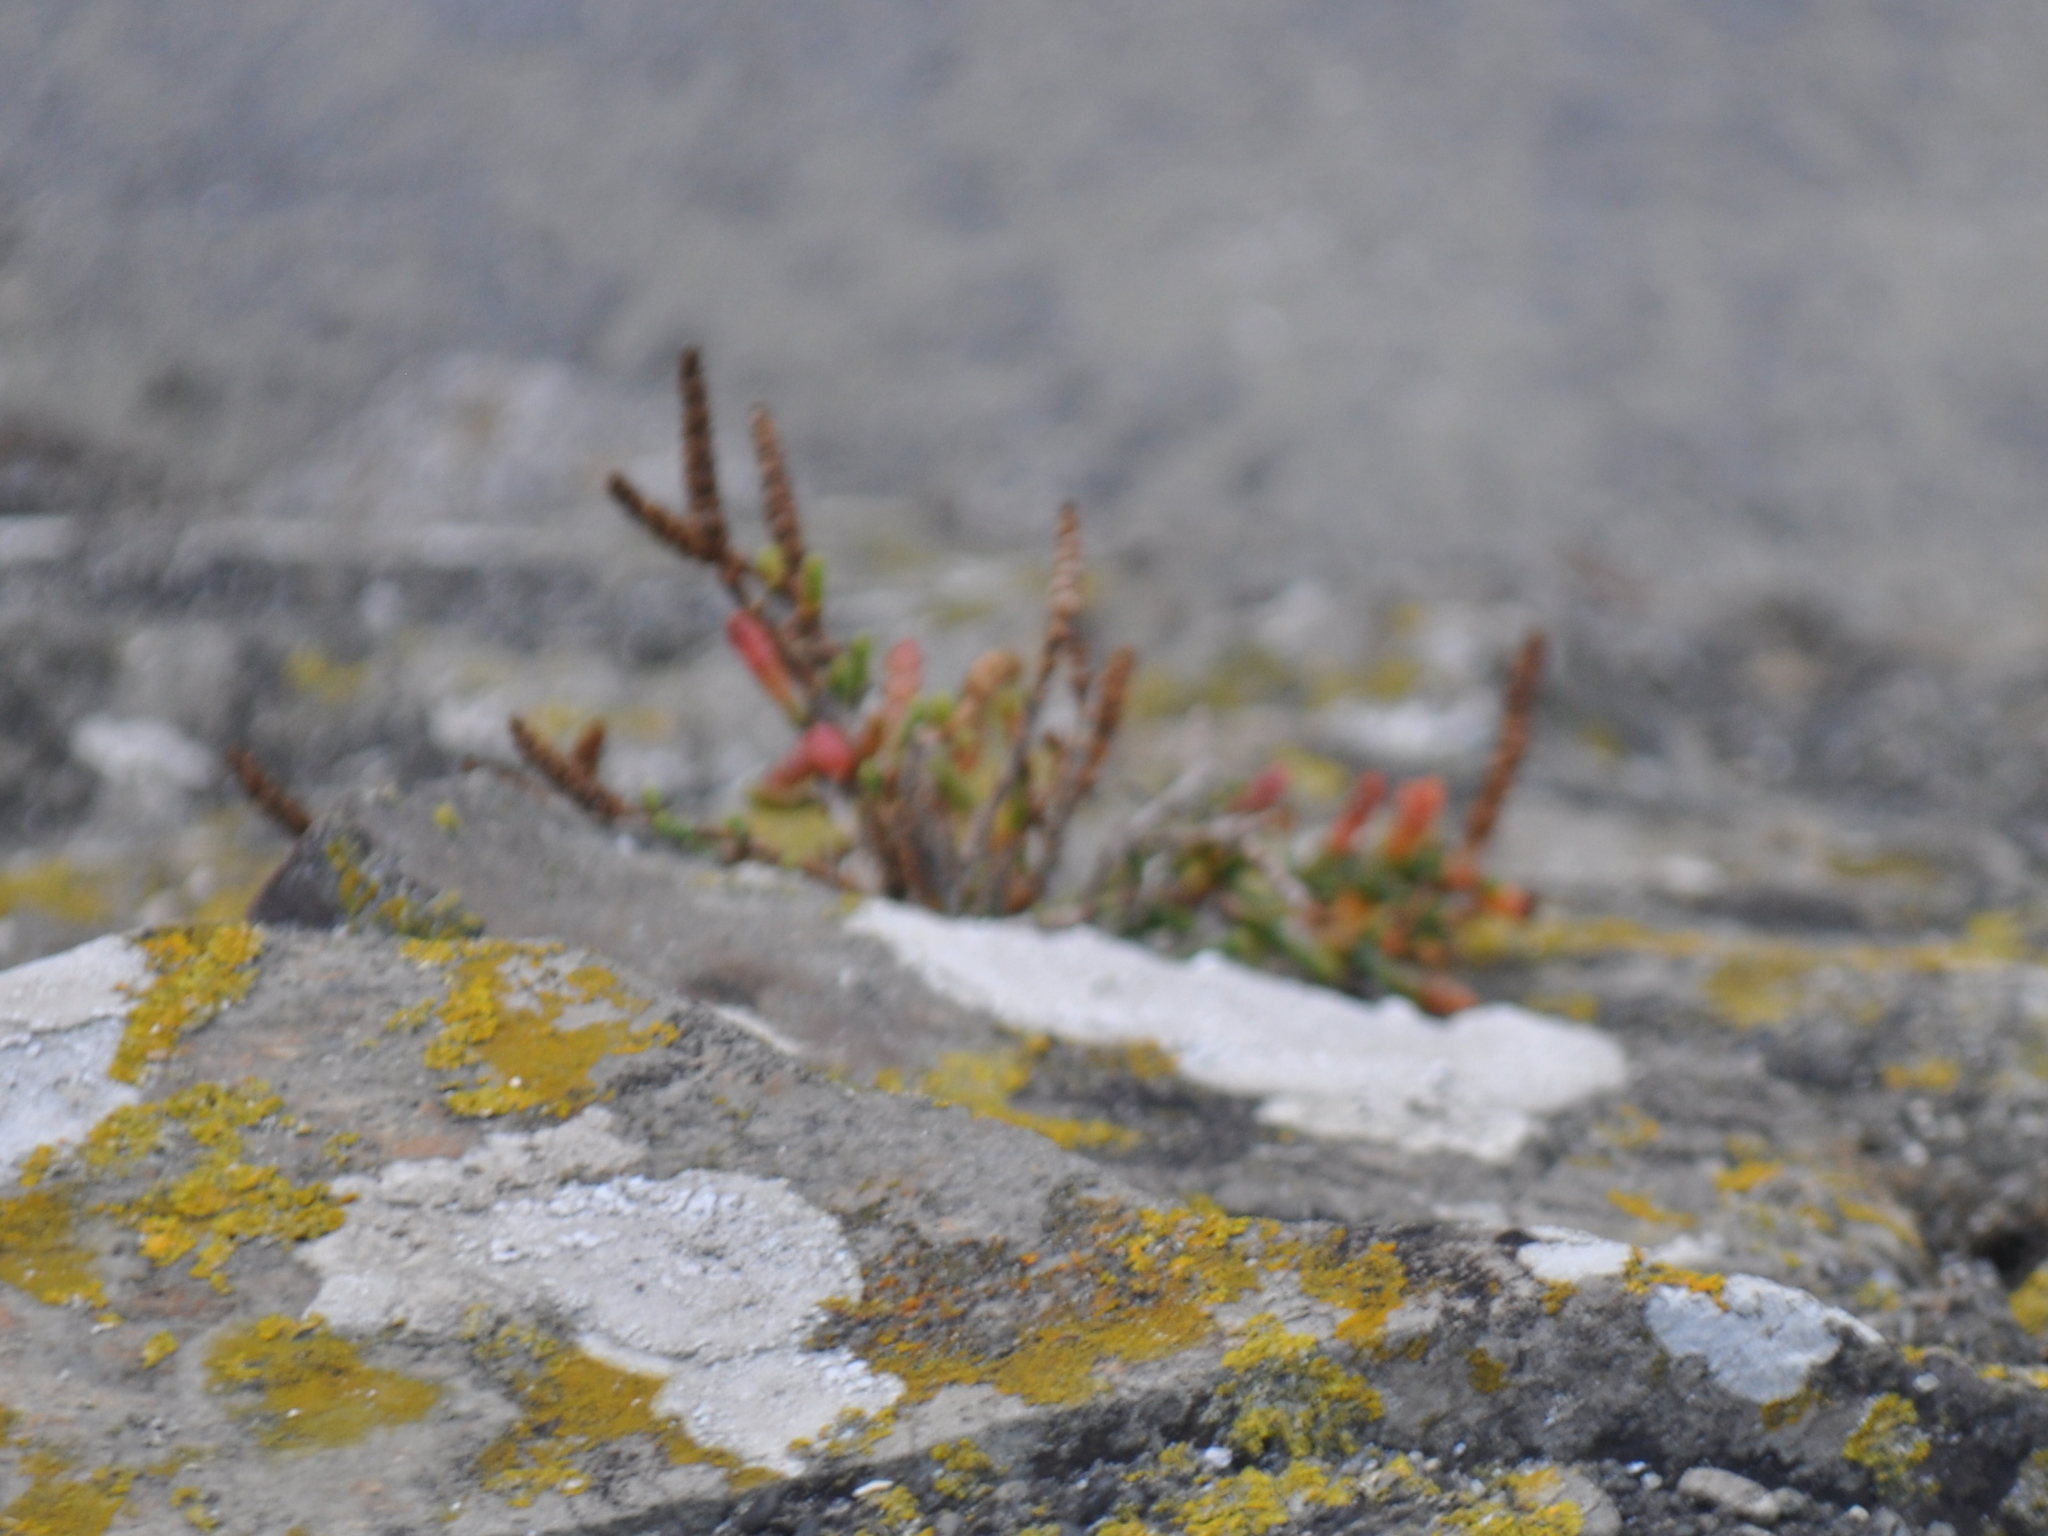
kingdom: Plantae
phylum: Tracheophyta
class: Magnoliopsida
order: Caryophyllales
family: Amaranthaceae
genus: Salicornia
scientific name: Salicornia quinqueflora
